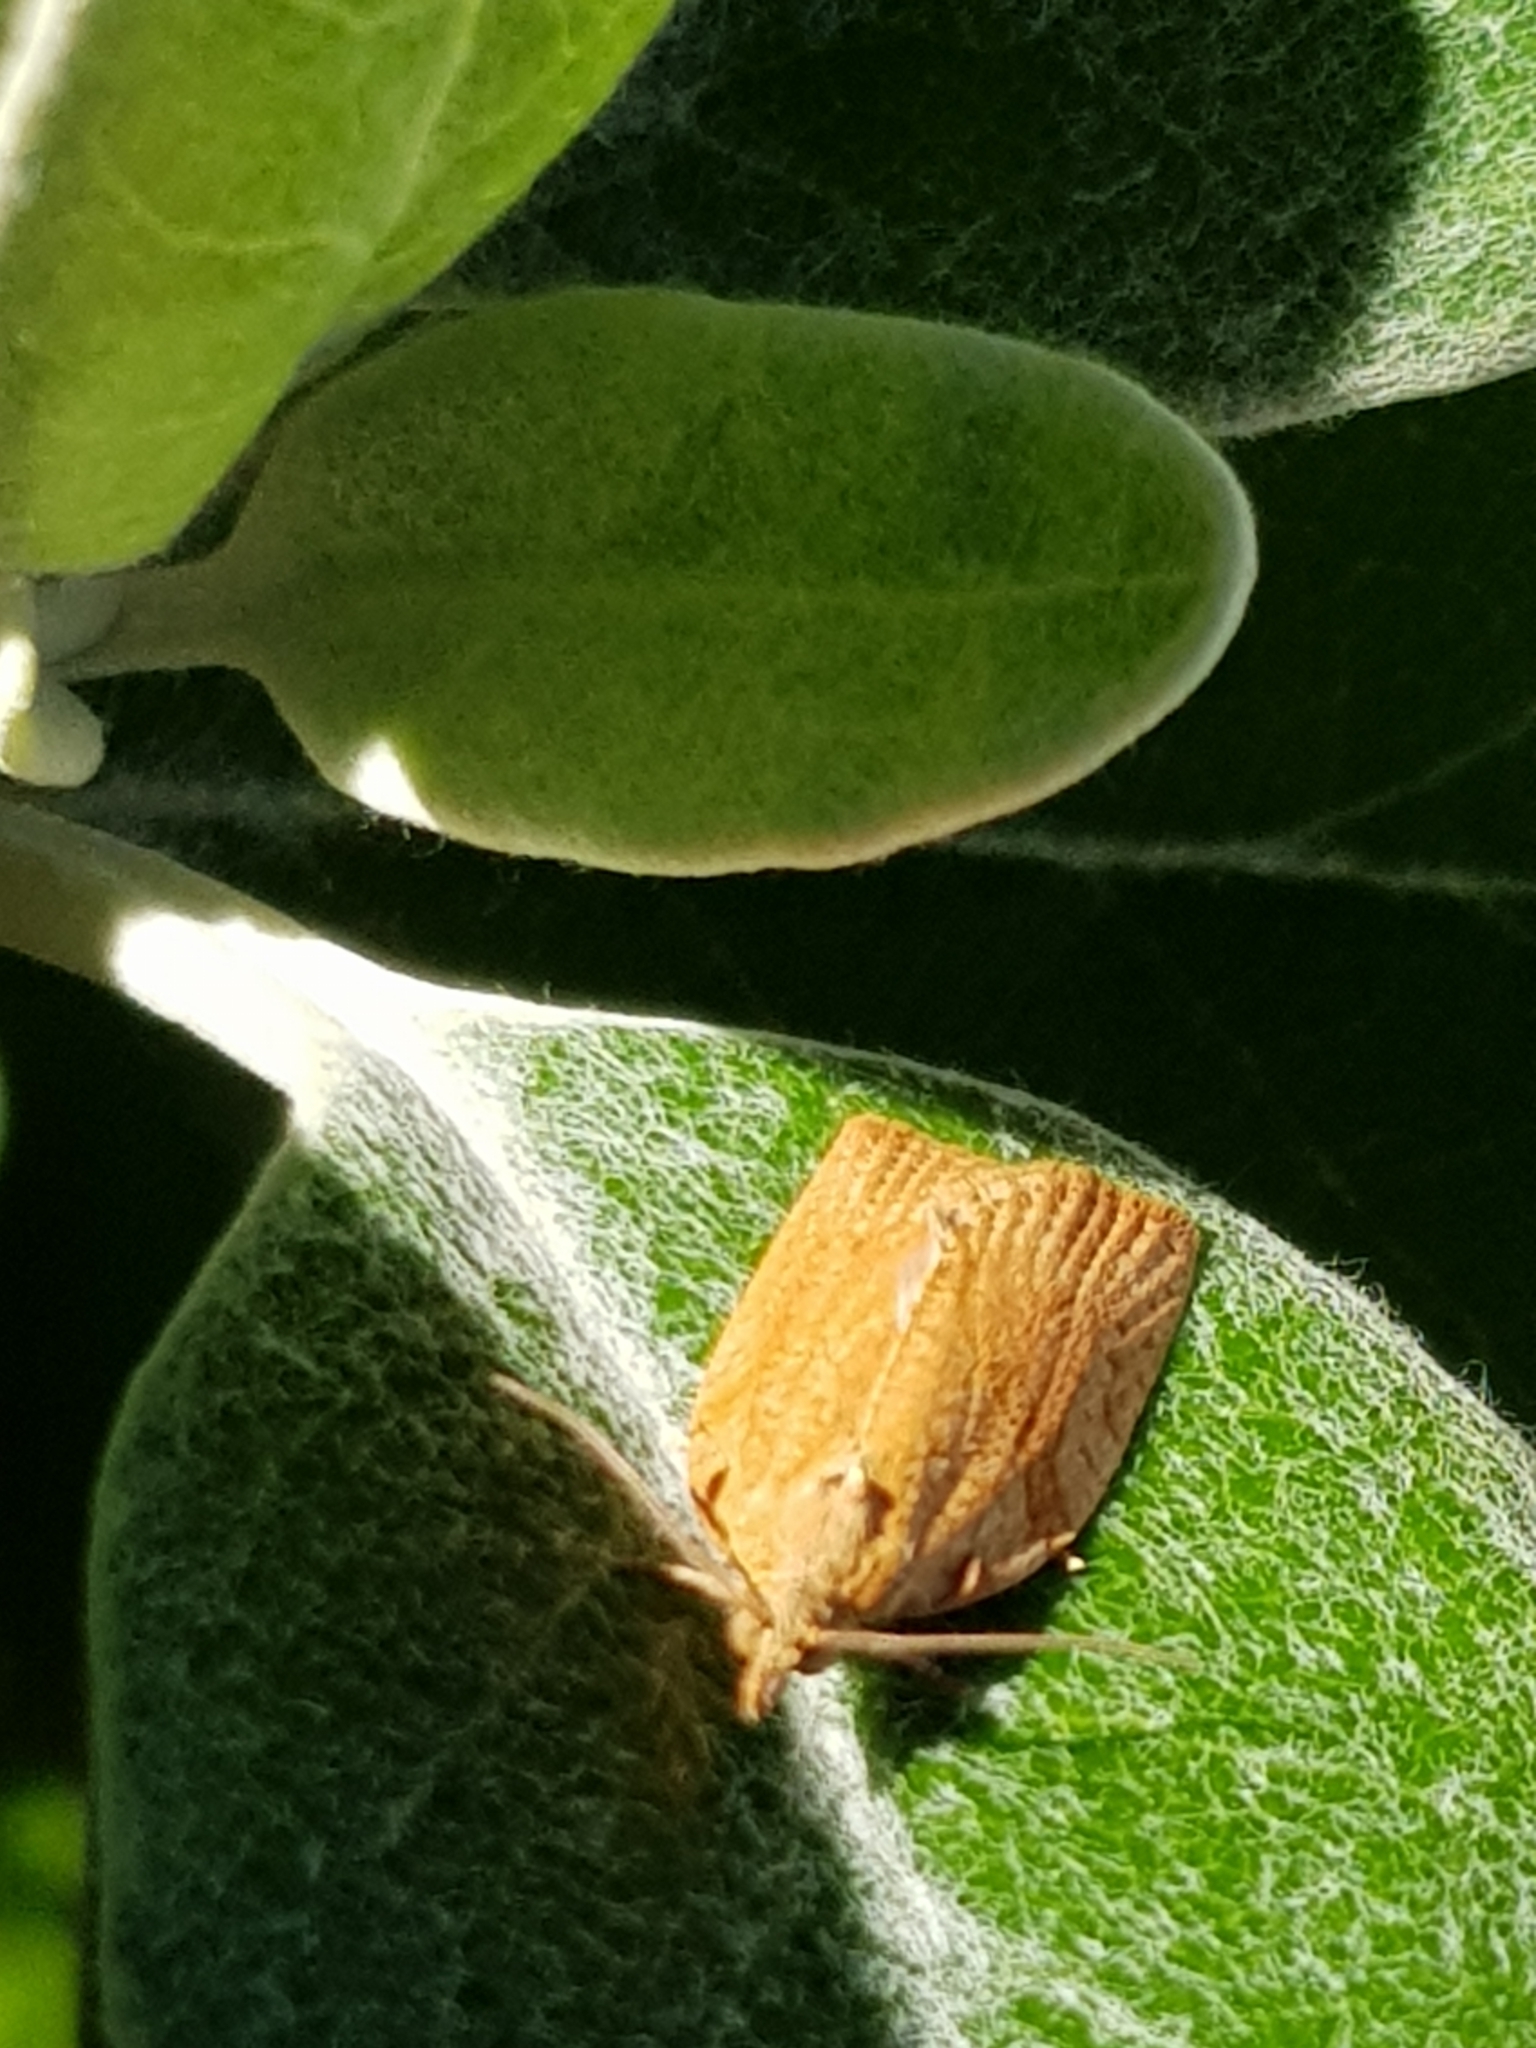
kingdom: Animalia
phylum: Arthropoda
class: Insecta
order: Lepidoptera
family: Tortricidae
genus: Epiphyas
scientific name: Epiphyas postvittana
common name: Light brown apple moth
